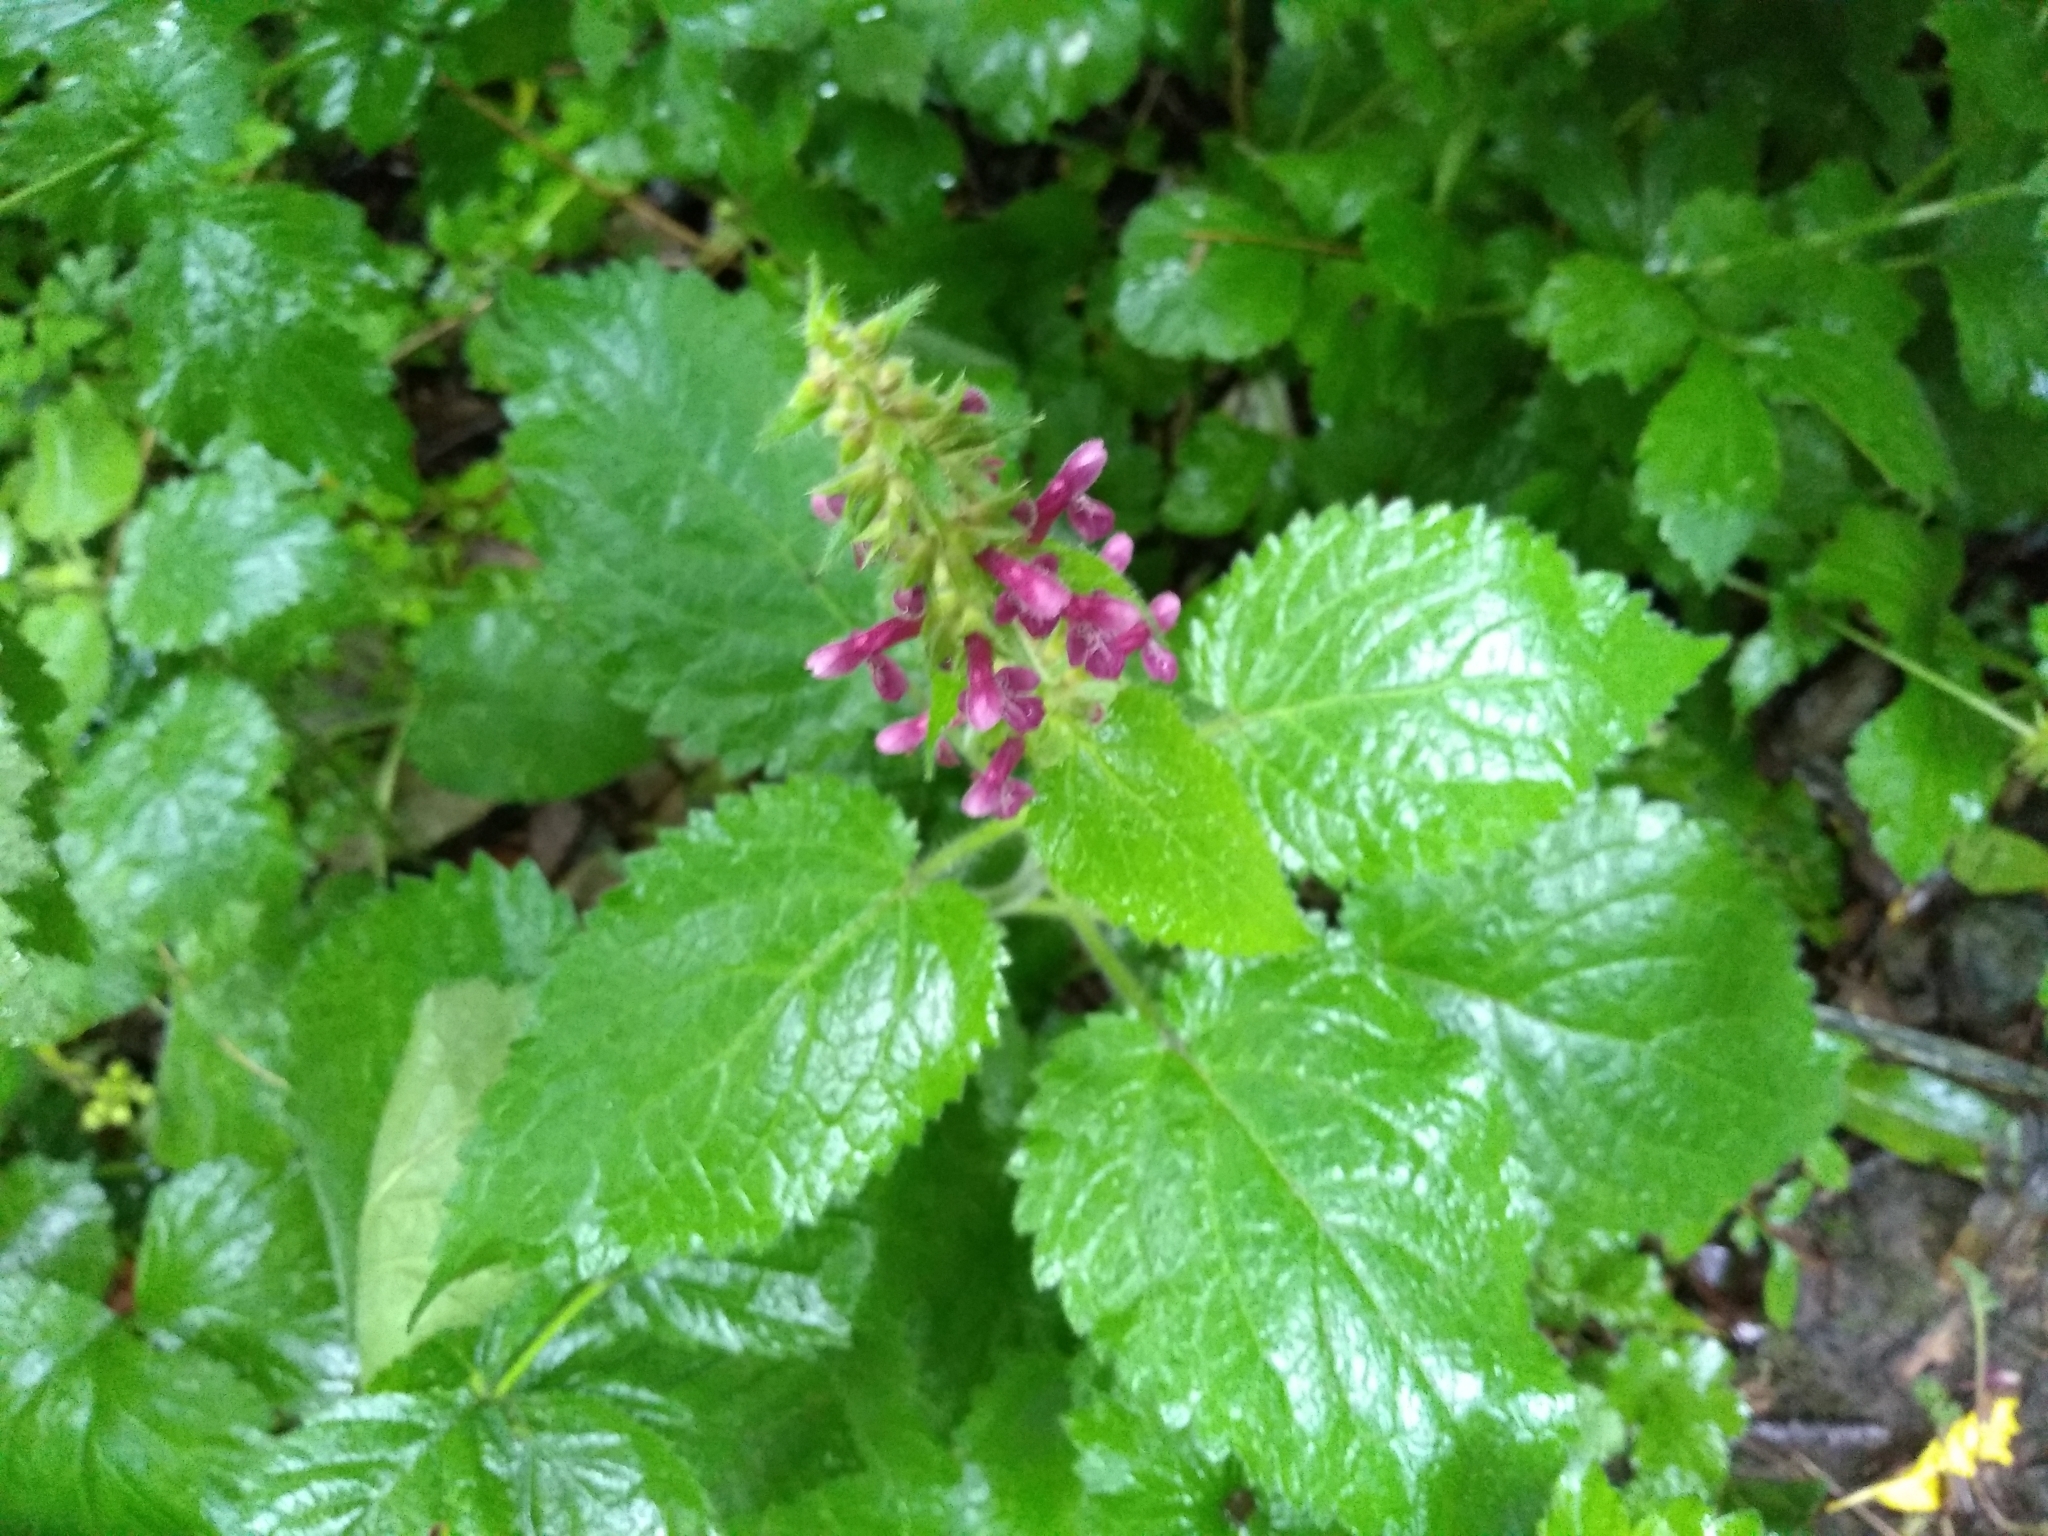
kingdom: Plantae
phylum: Tracheophyta
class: Magnoliopsida
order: Lamiales
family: Lamiaceae
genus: Stachys
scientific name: Stachys sylvatica
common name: Hedge woundwort
